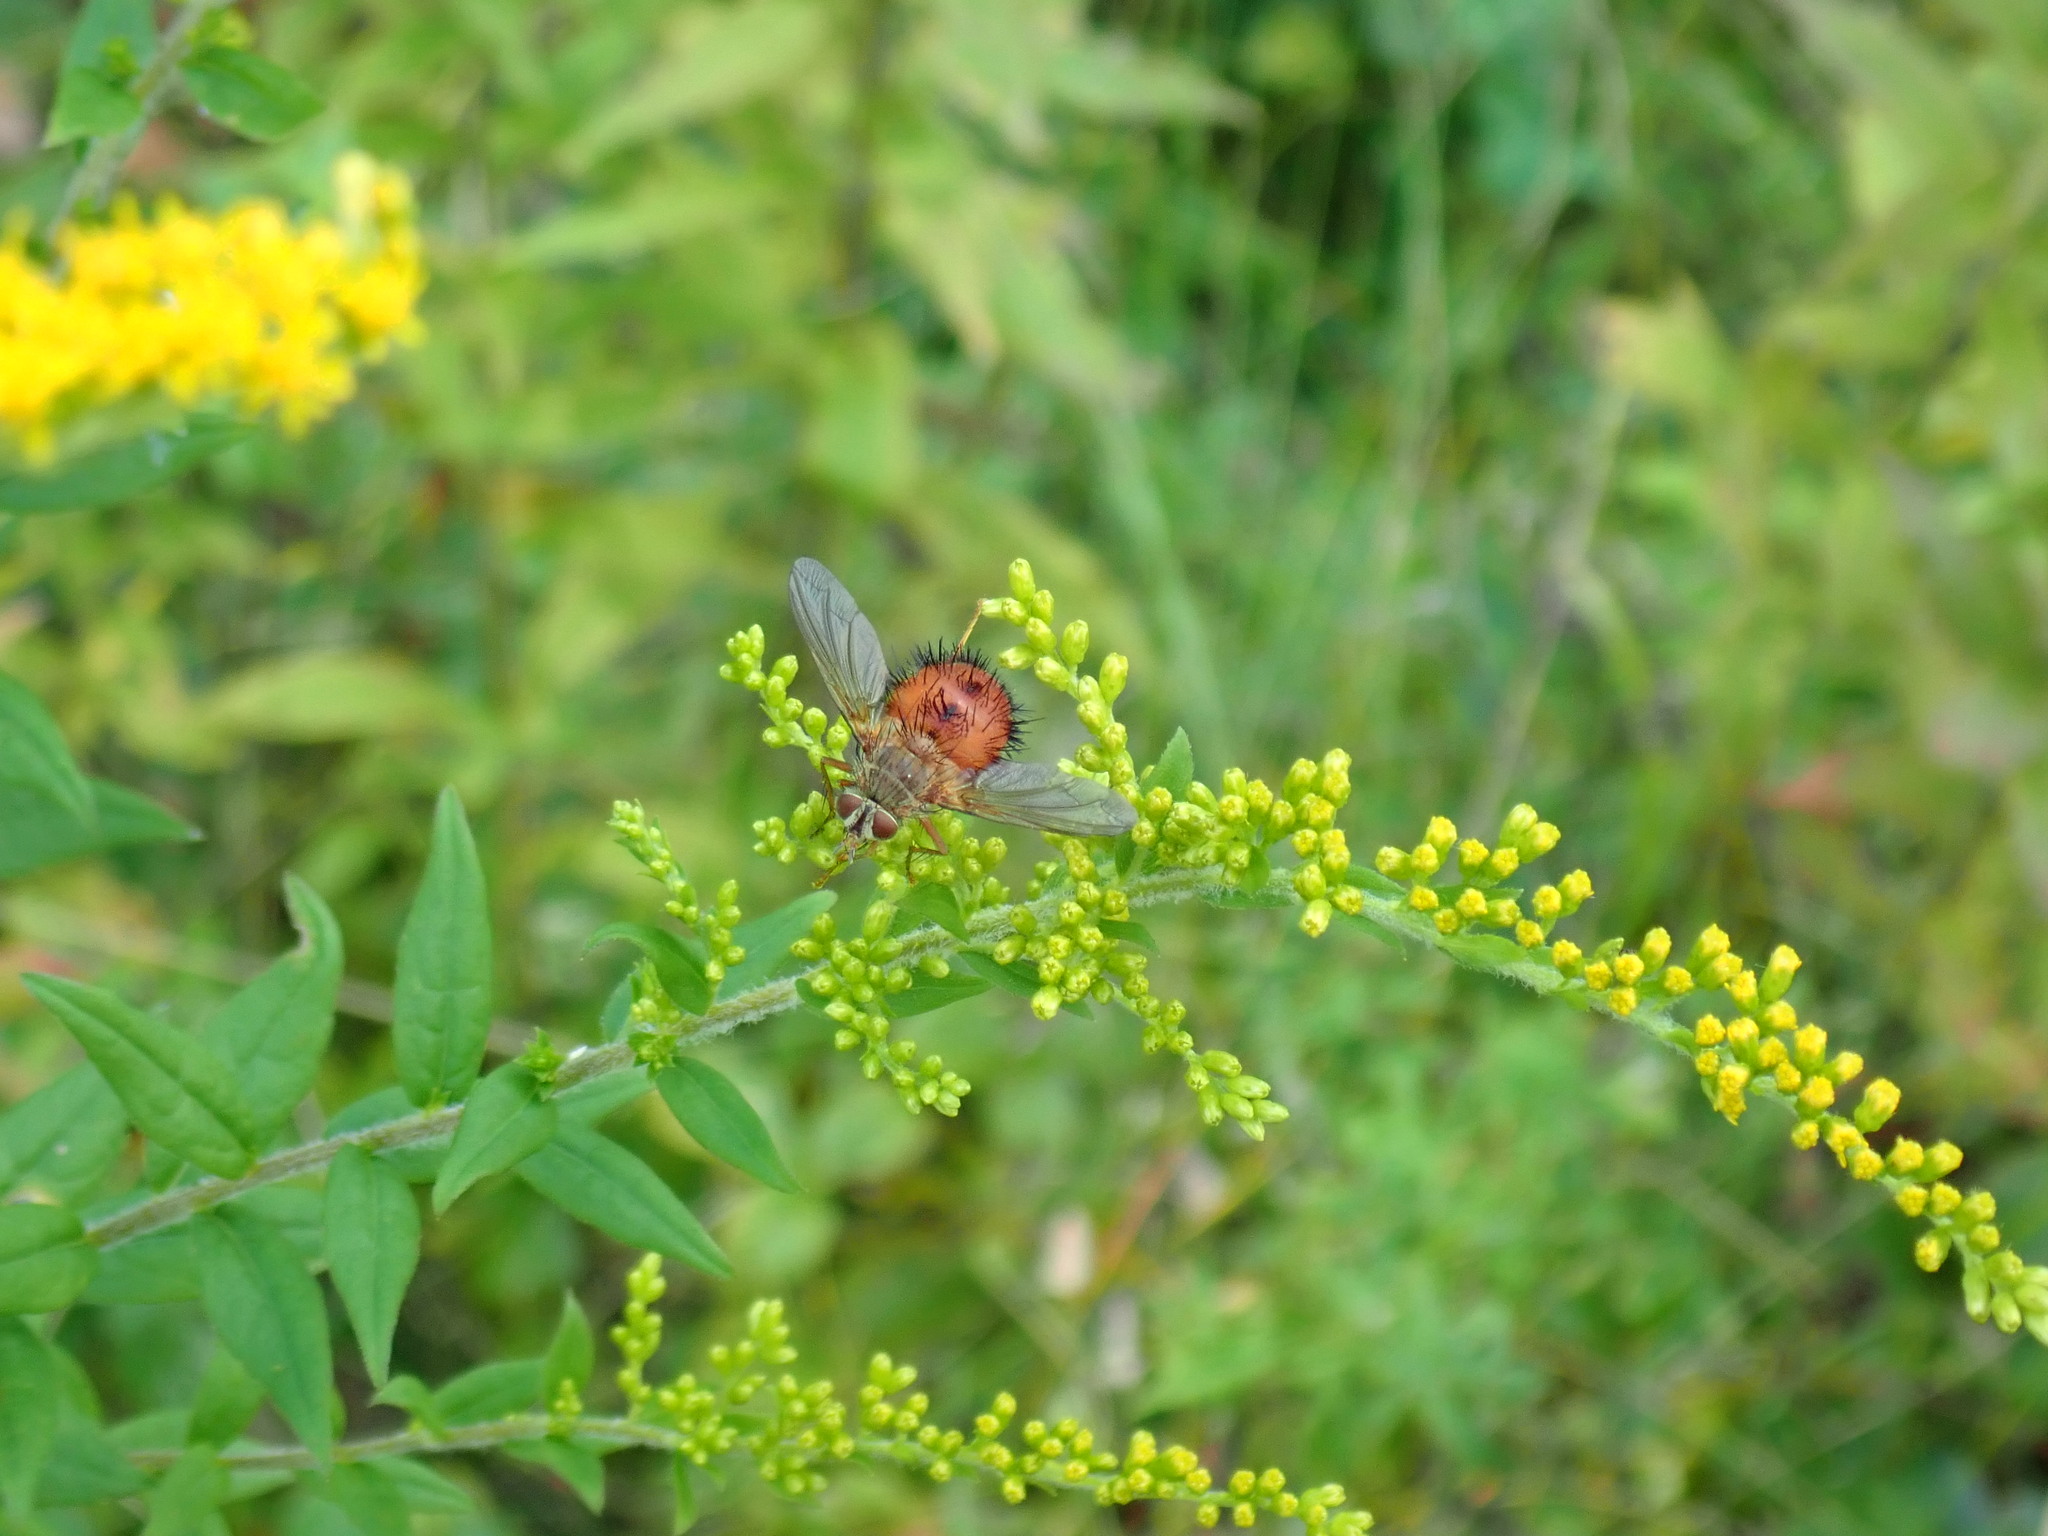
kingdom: Animalia
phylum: Arthropoda
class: Insecta
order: Diptera
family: Tachinidae
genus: Hystricia
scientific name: Hystricia abrupta
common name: Tomato bristle fly
